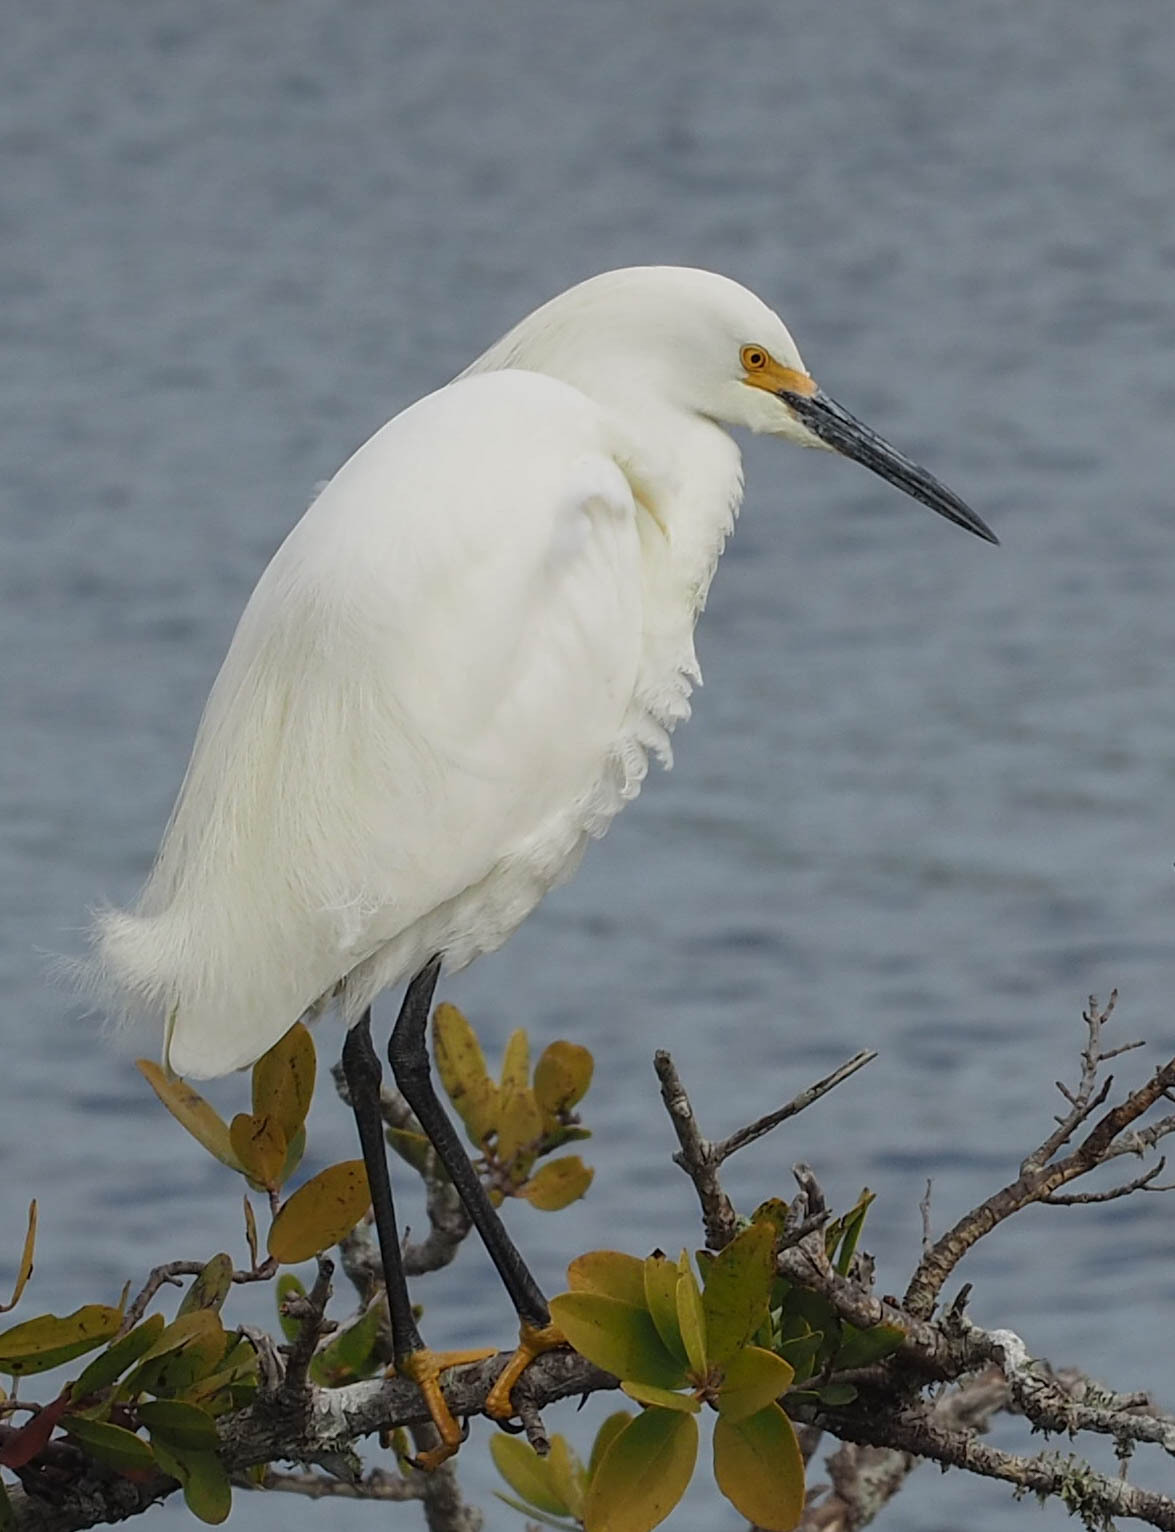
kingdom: Animalia
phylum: Chordata
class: Aves
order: Pelecaniformes
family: Ardeidae
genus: Egretta
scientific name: Egretta thula
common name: Snowy egret
